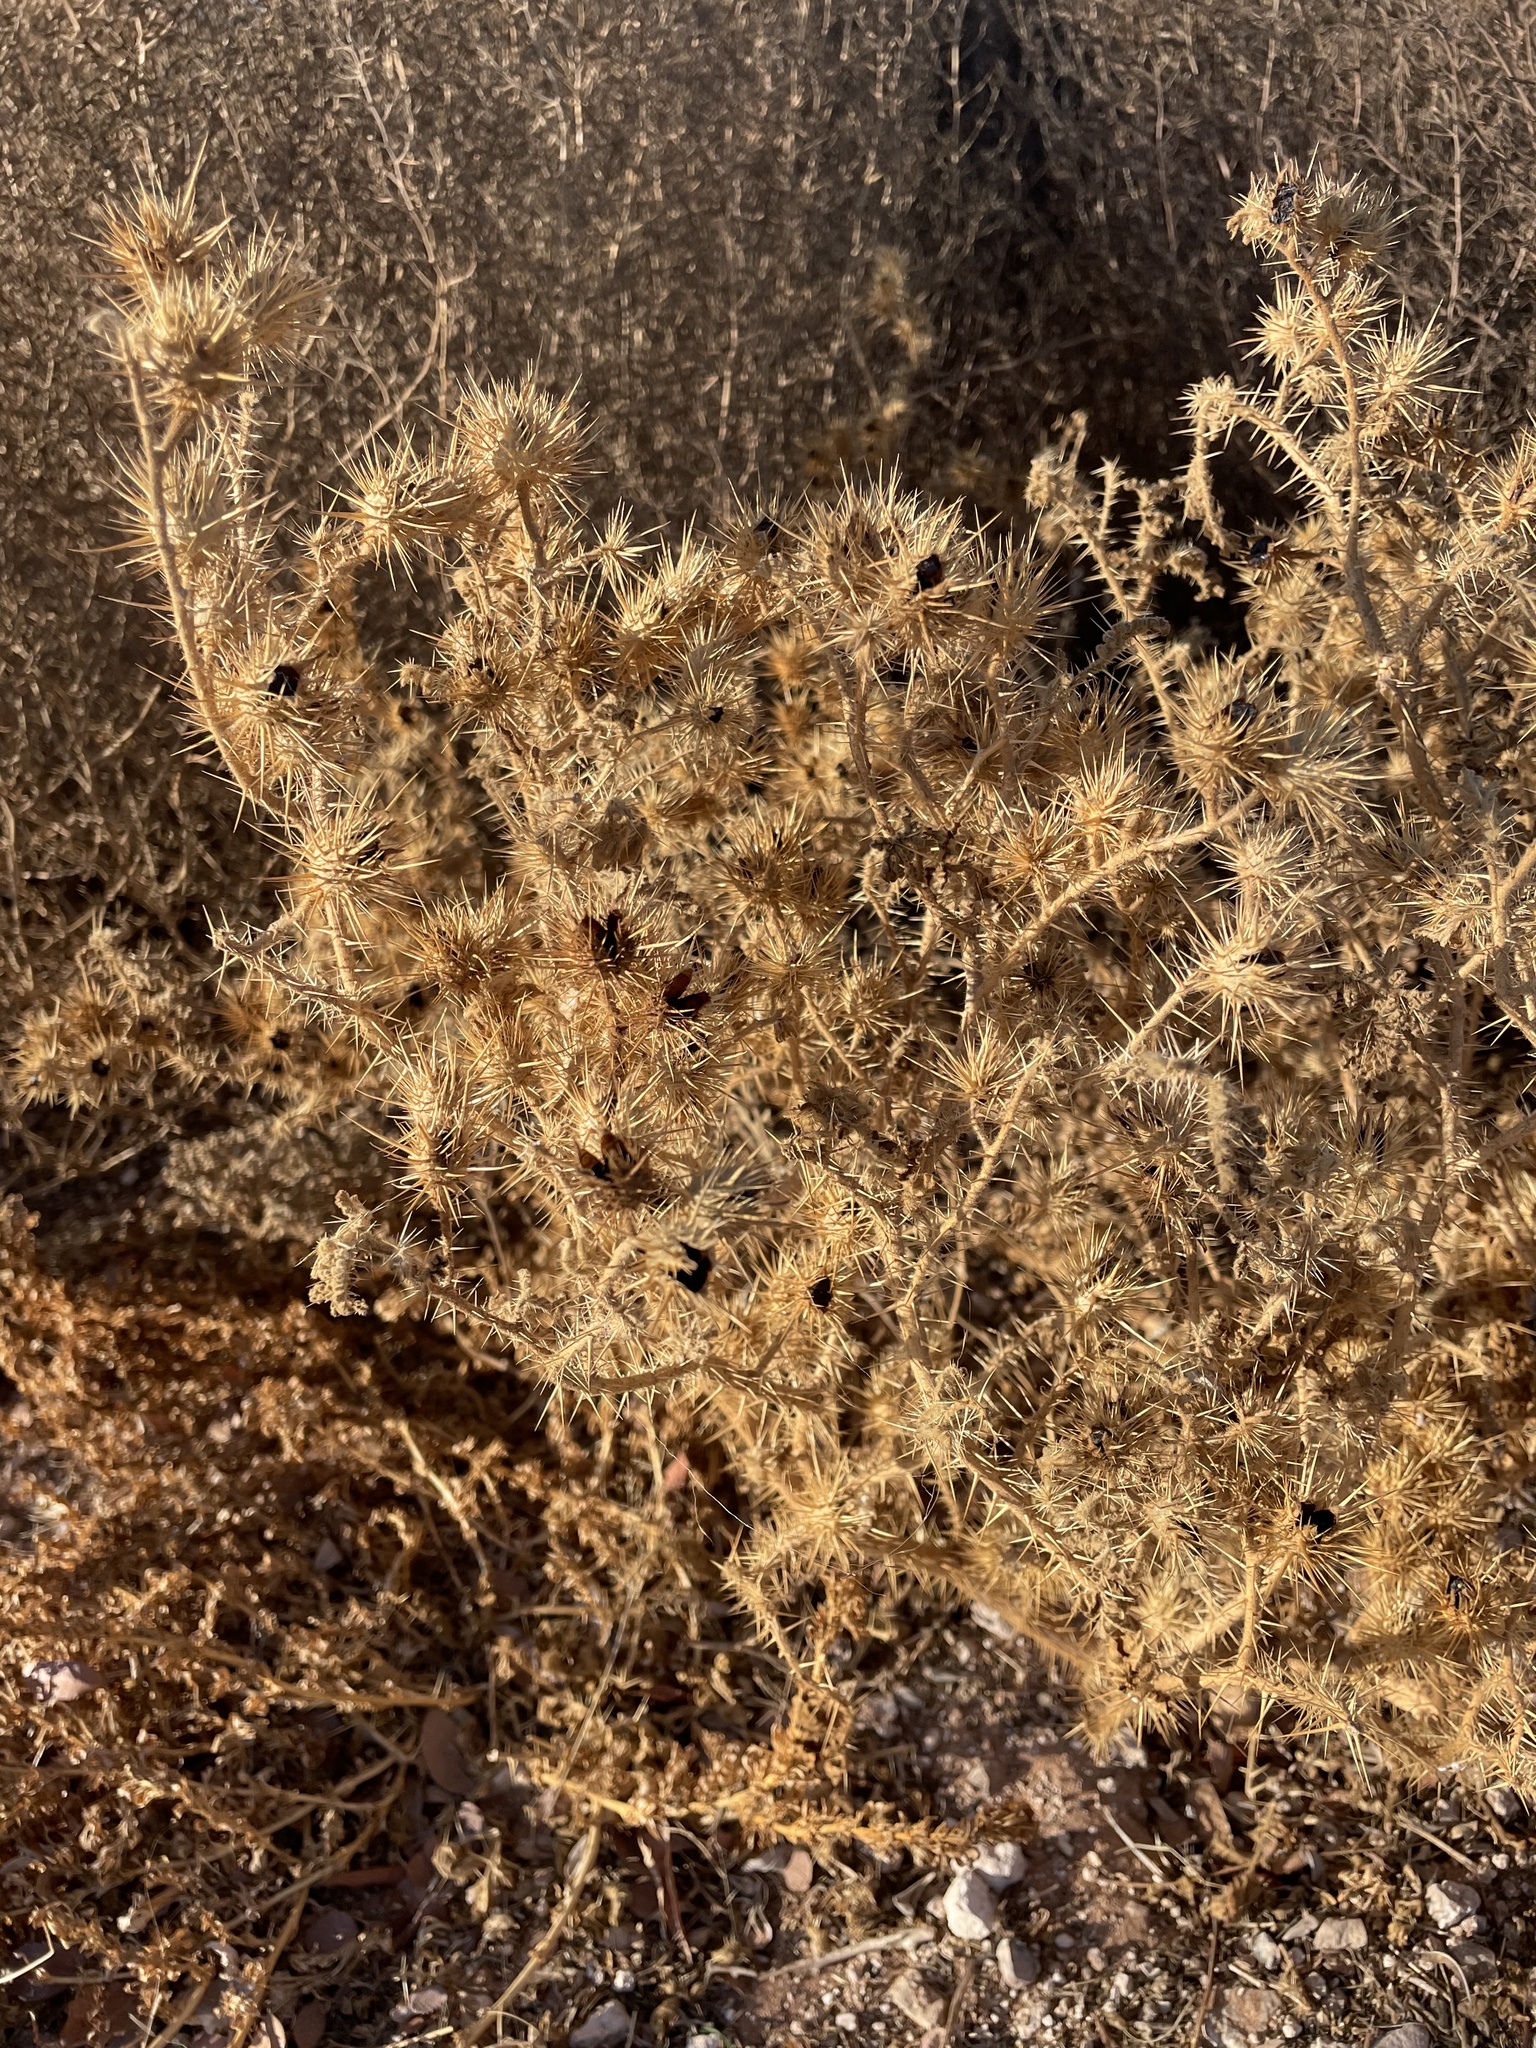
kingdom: Plantae
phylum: Tracheophyta
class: Magnoliopsida
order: Solanales
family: Solanaceae
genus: Solanum
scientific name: Solanum angustifolium
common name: Buffalobur nightshade
